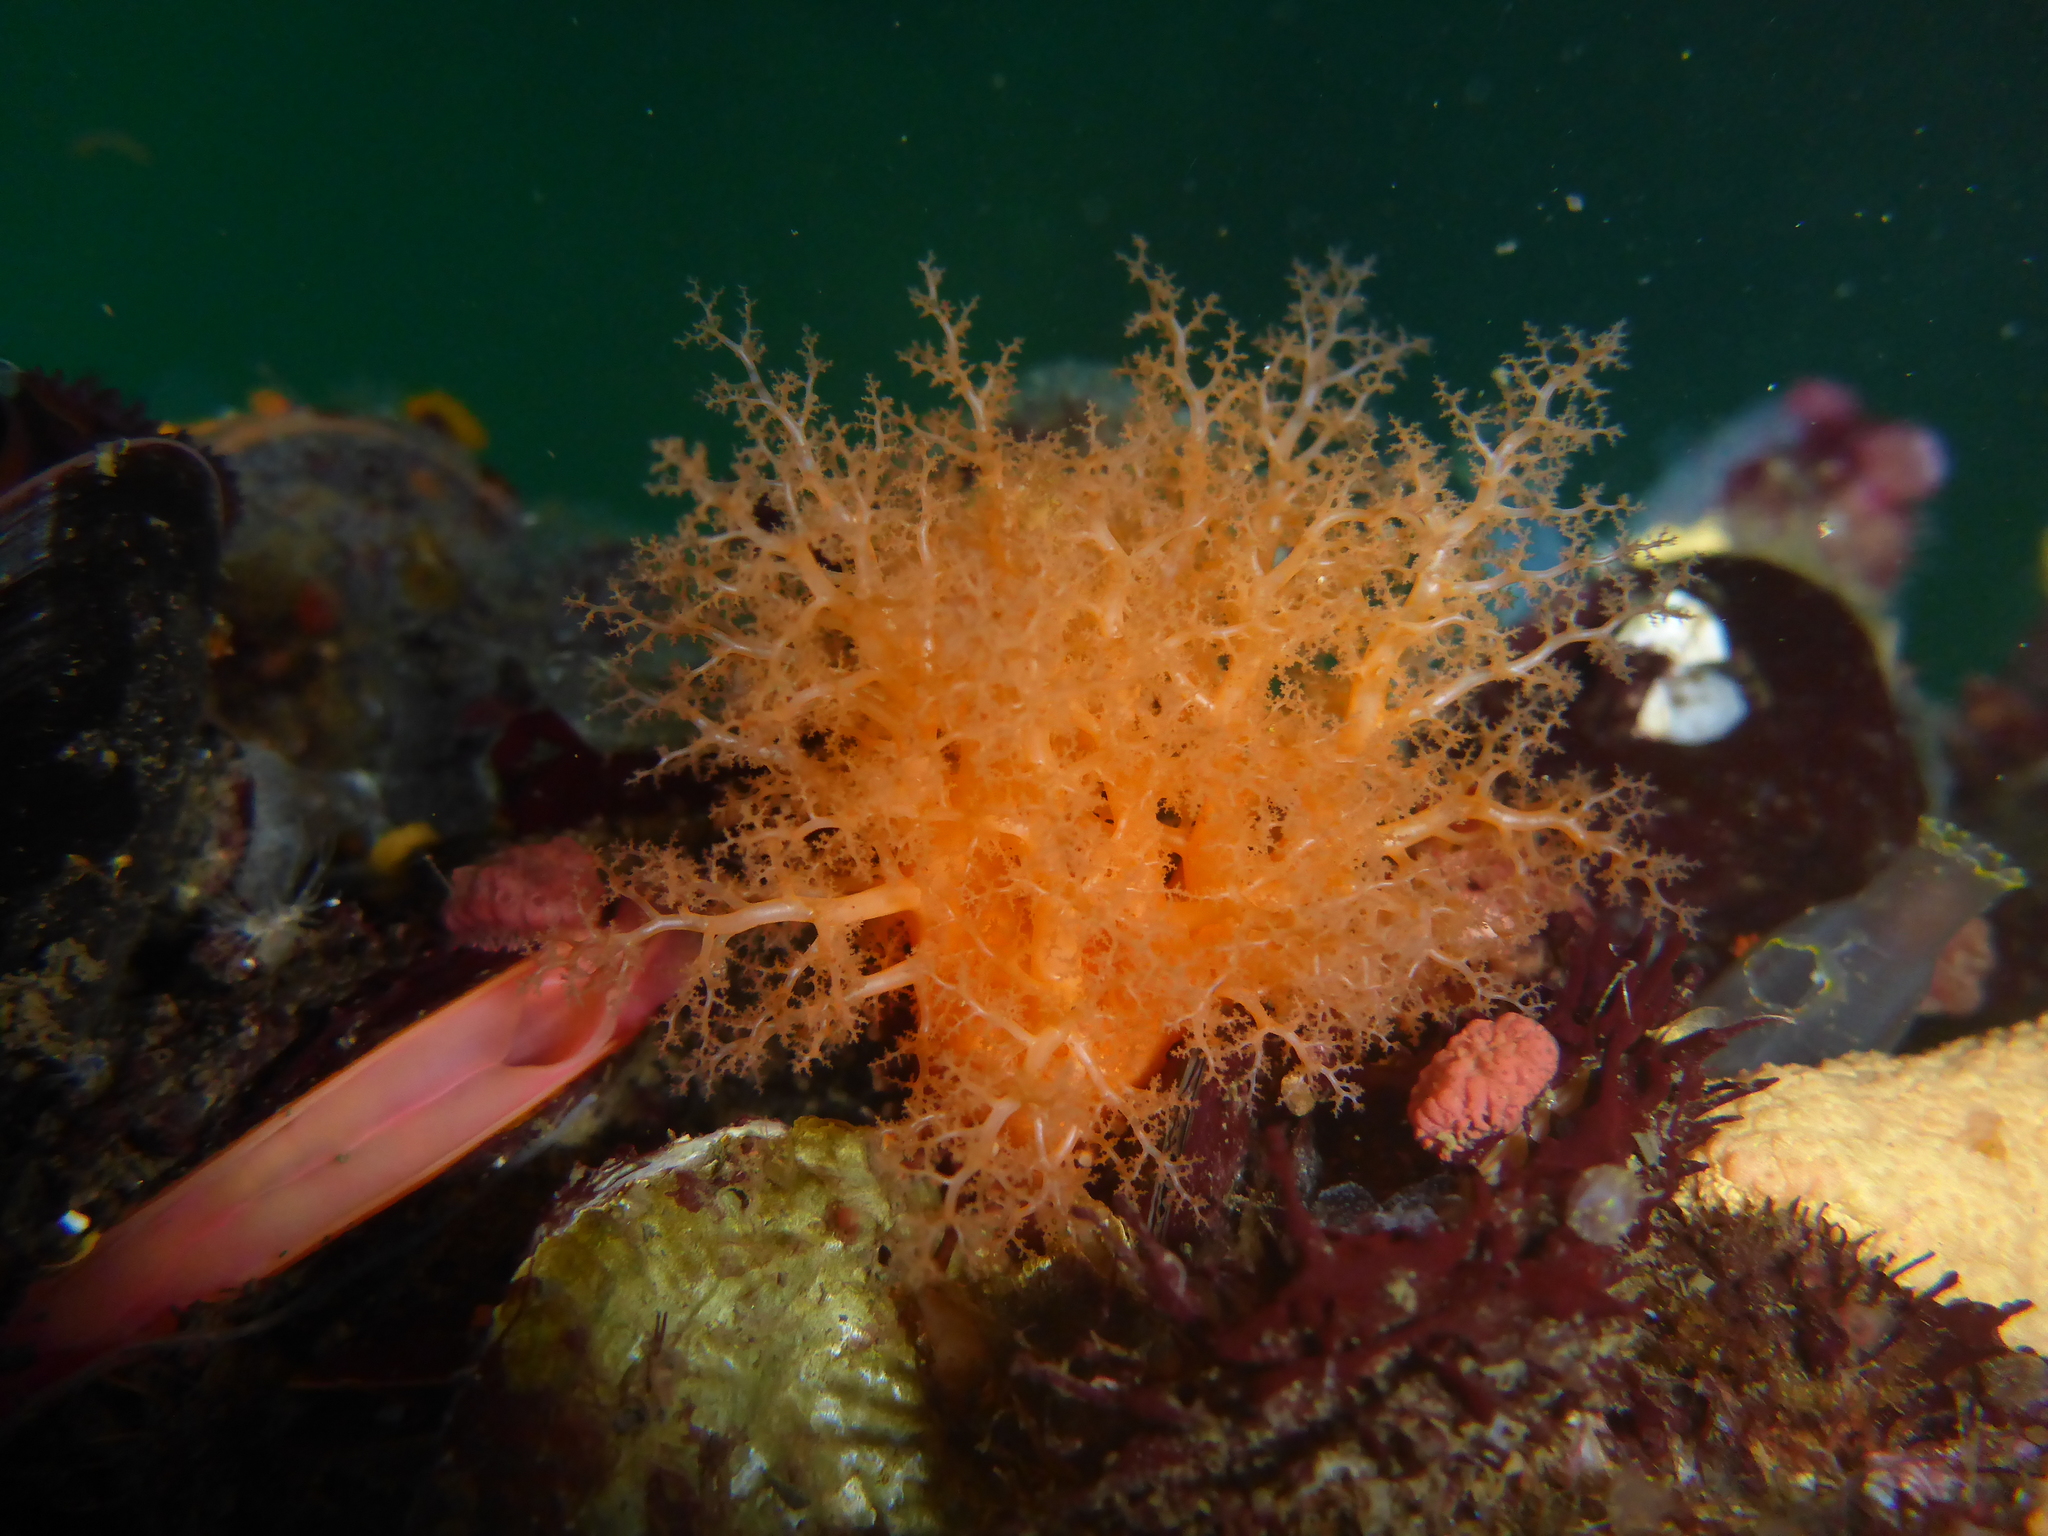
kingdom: Animalia
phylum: Echinodermata
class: Holothuroidea
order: Dendrochirotida
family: Cucumariidae
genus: Cucumaria
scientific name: Cucumaria miniata
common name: Orange sea cucumber
